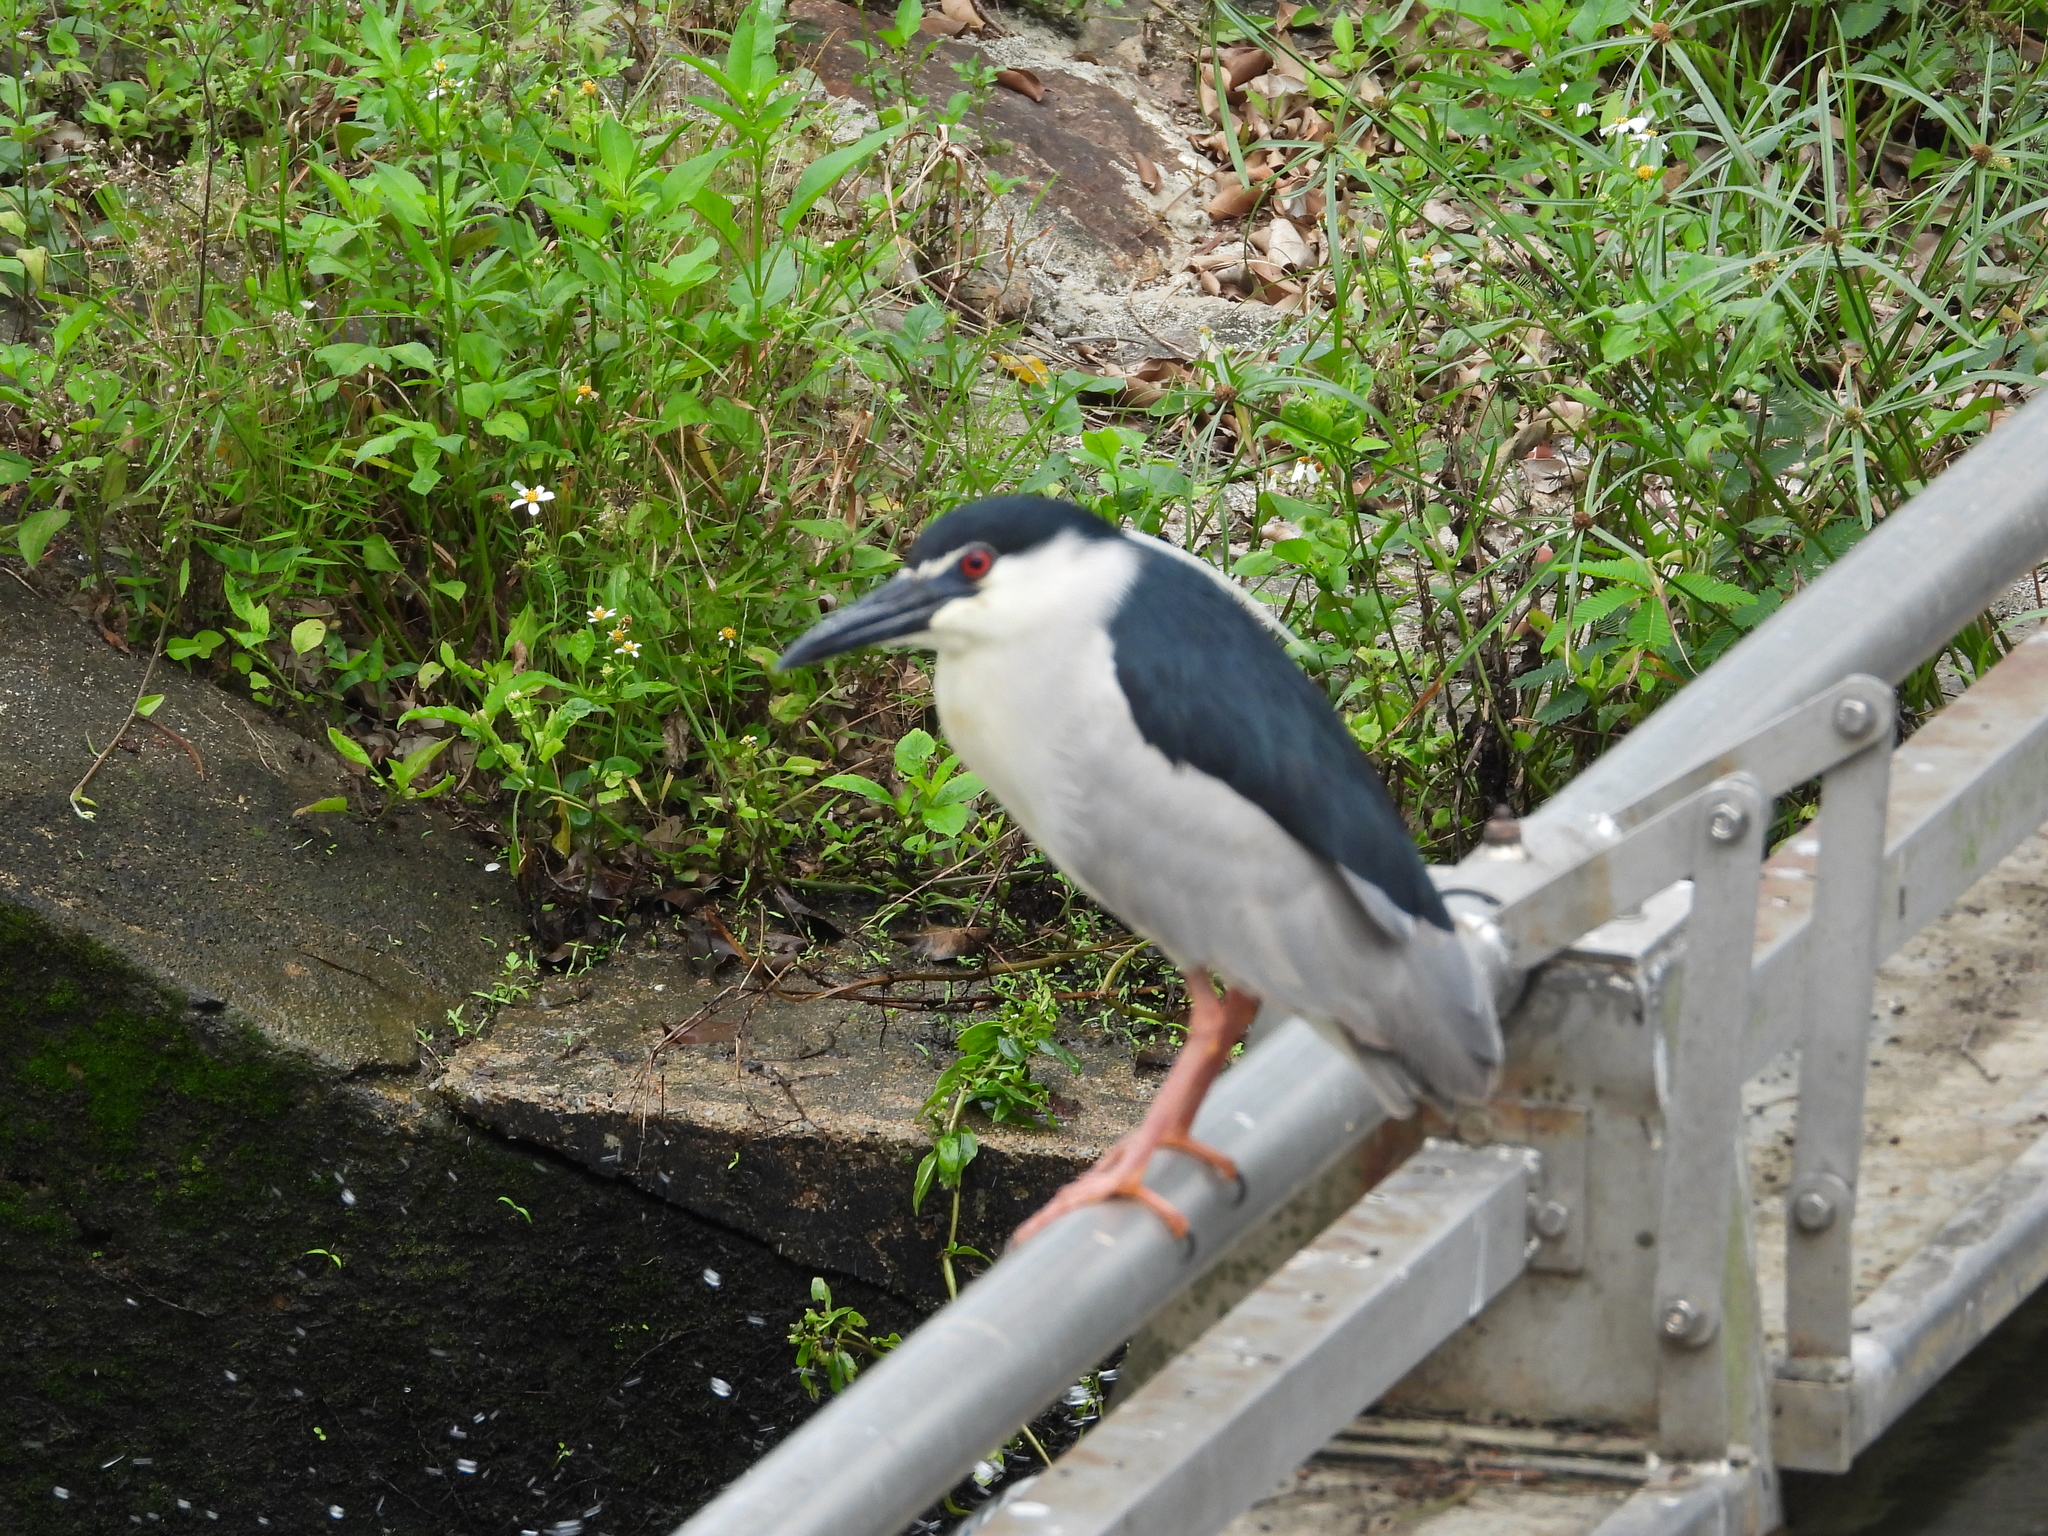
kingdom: Animalia
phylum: Chordata
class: Aves
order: Pelecaniformes
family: Ardeidae
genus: Nycticorax
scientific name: Nycticorax nycticorax
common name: Black-crowned night heron
